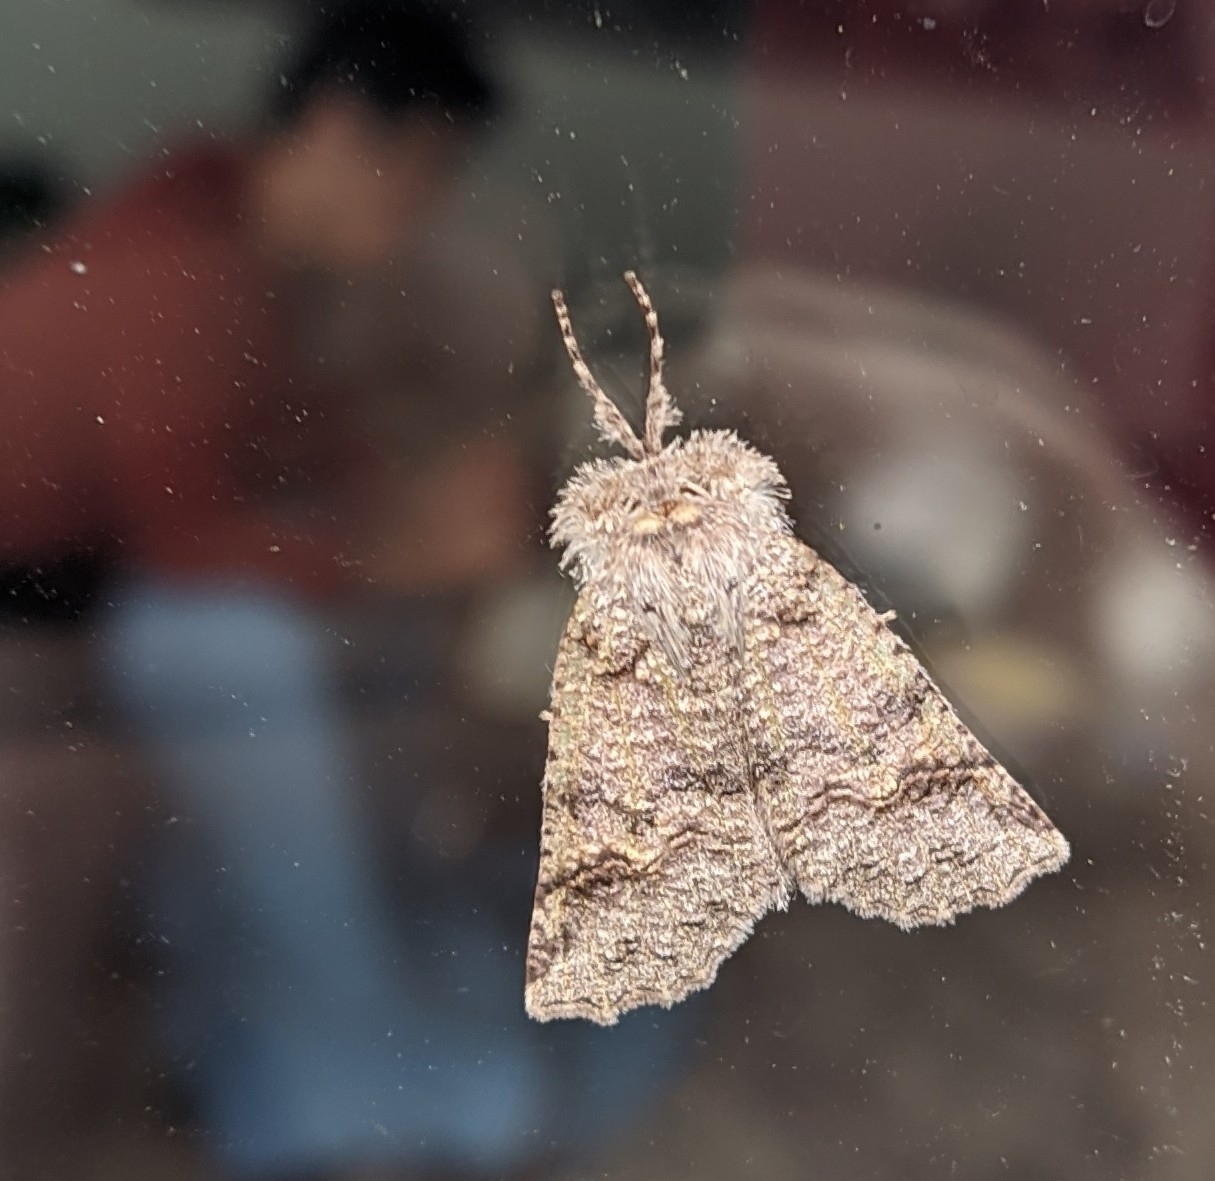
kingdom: Animalia
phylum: Arthropoda
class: Insecta
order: Lepidoptera
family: Geometridae
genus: Declana
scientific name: Declana floccosa
